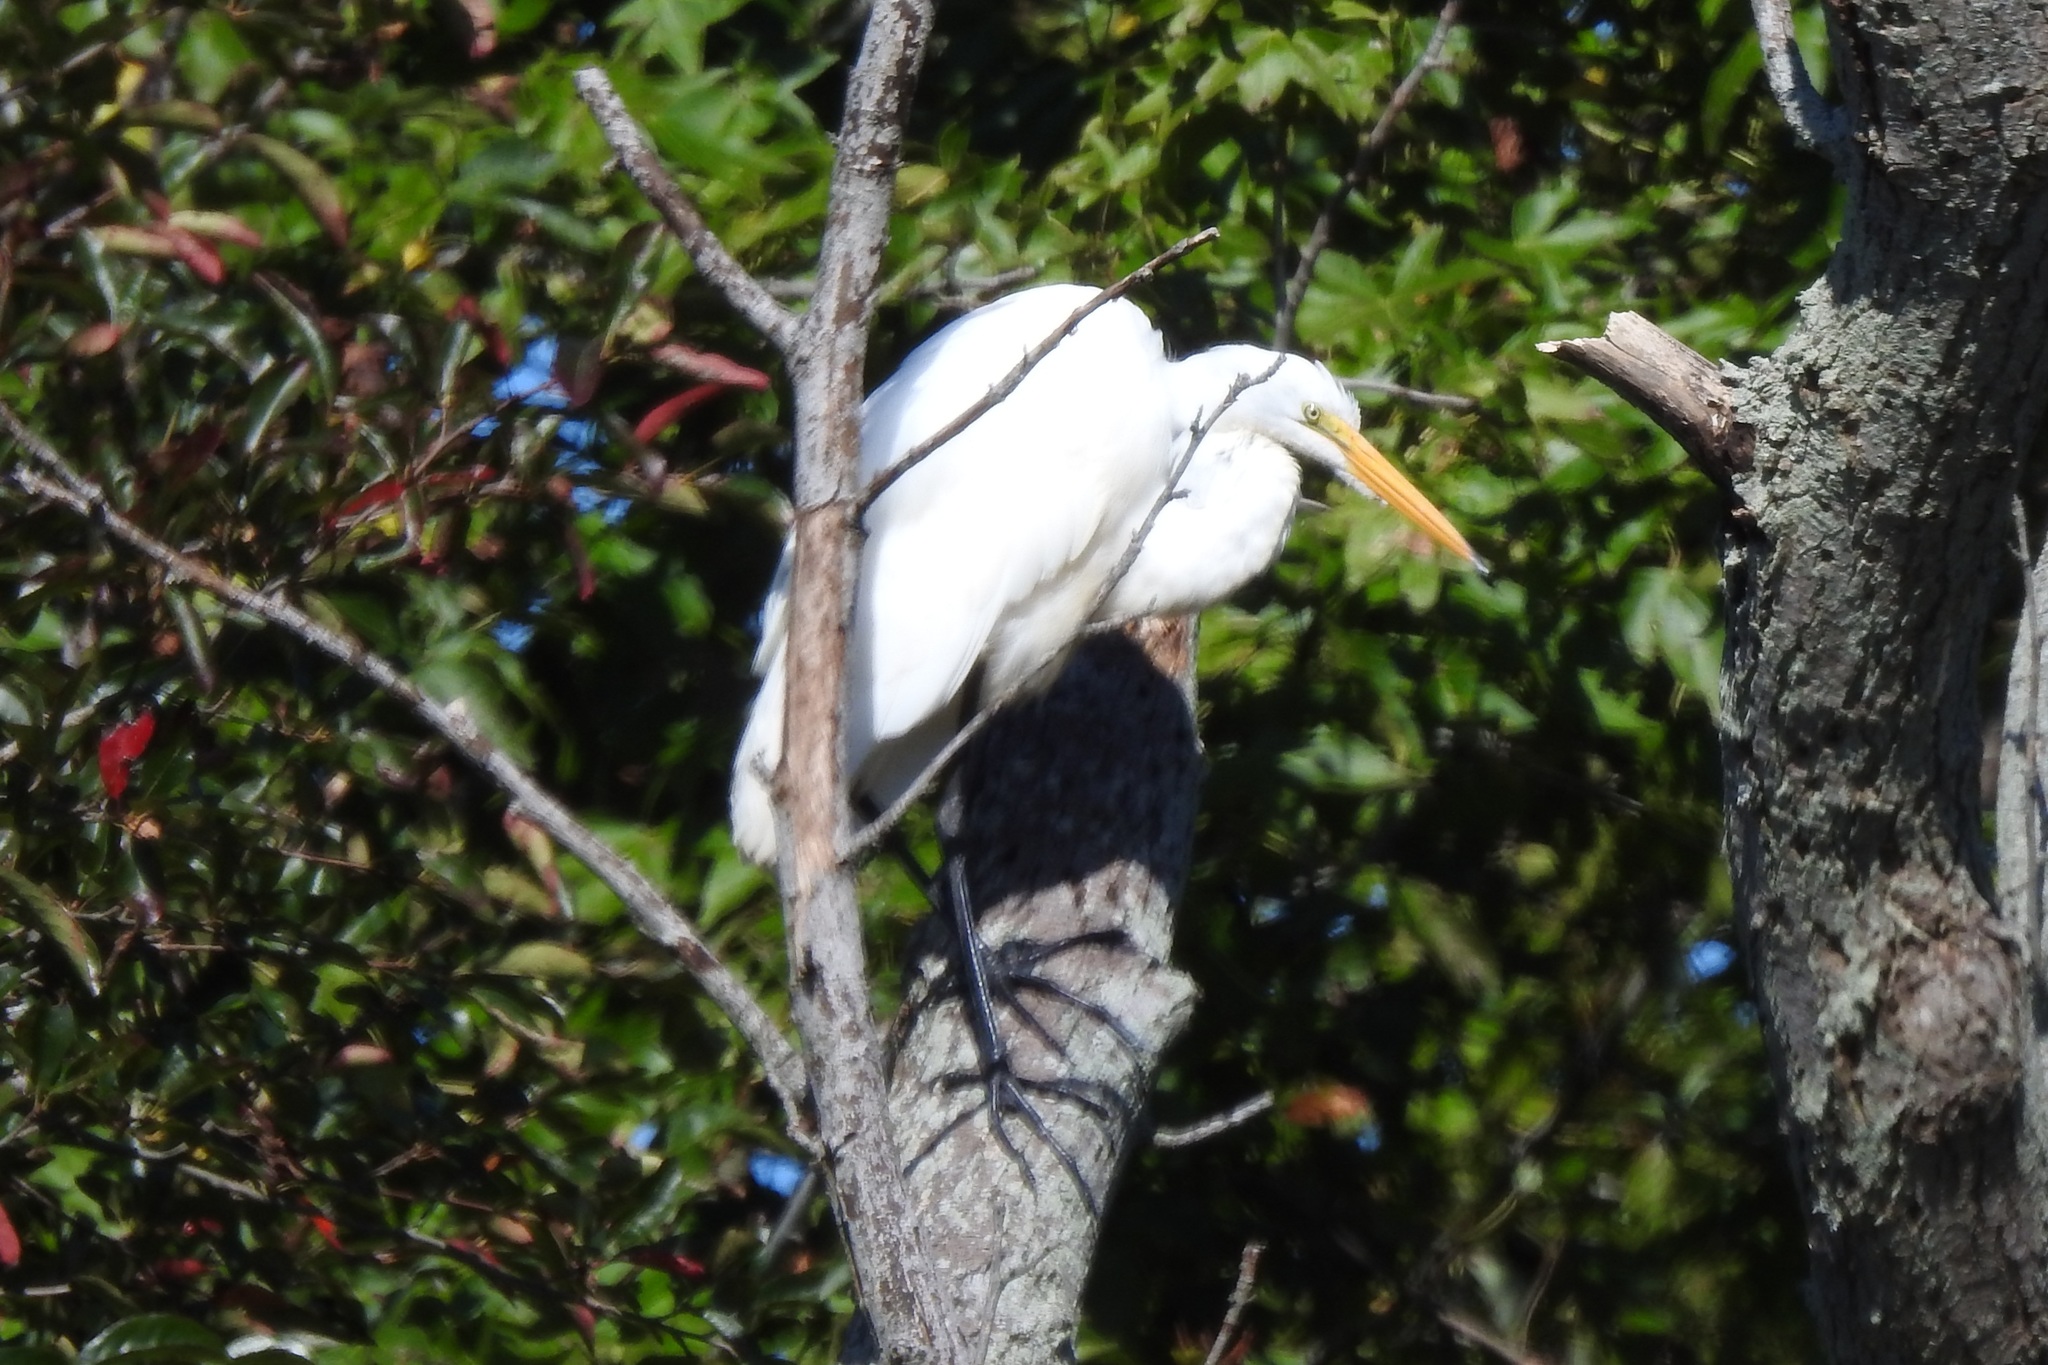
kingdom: Animalia
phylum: Chordata
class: Aves
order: Pelecaniformes
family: Ardeidae
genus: Ardea
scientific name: Ardea alba
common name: Great egret
